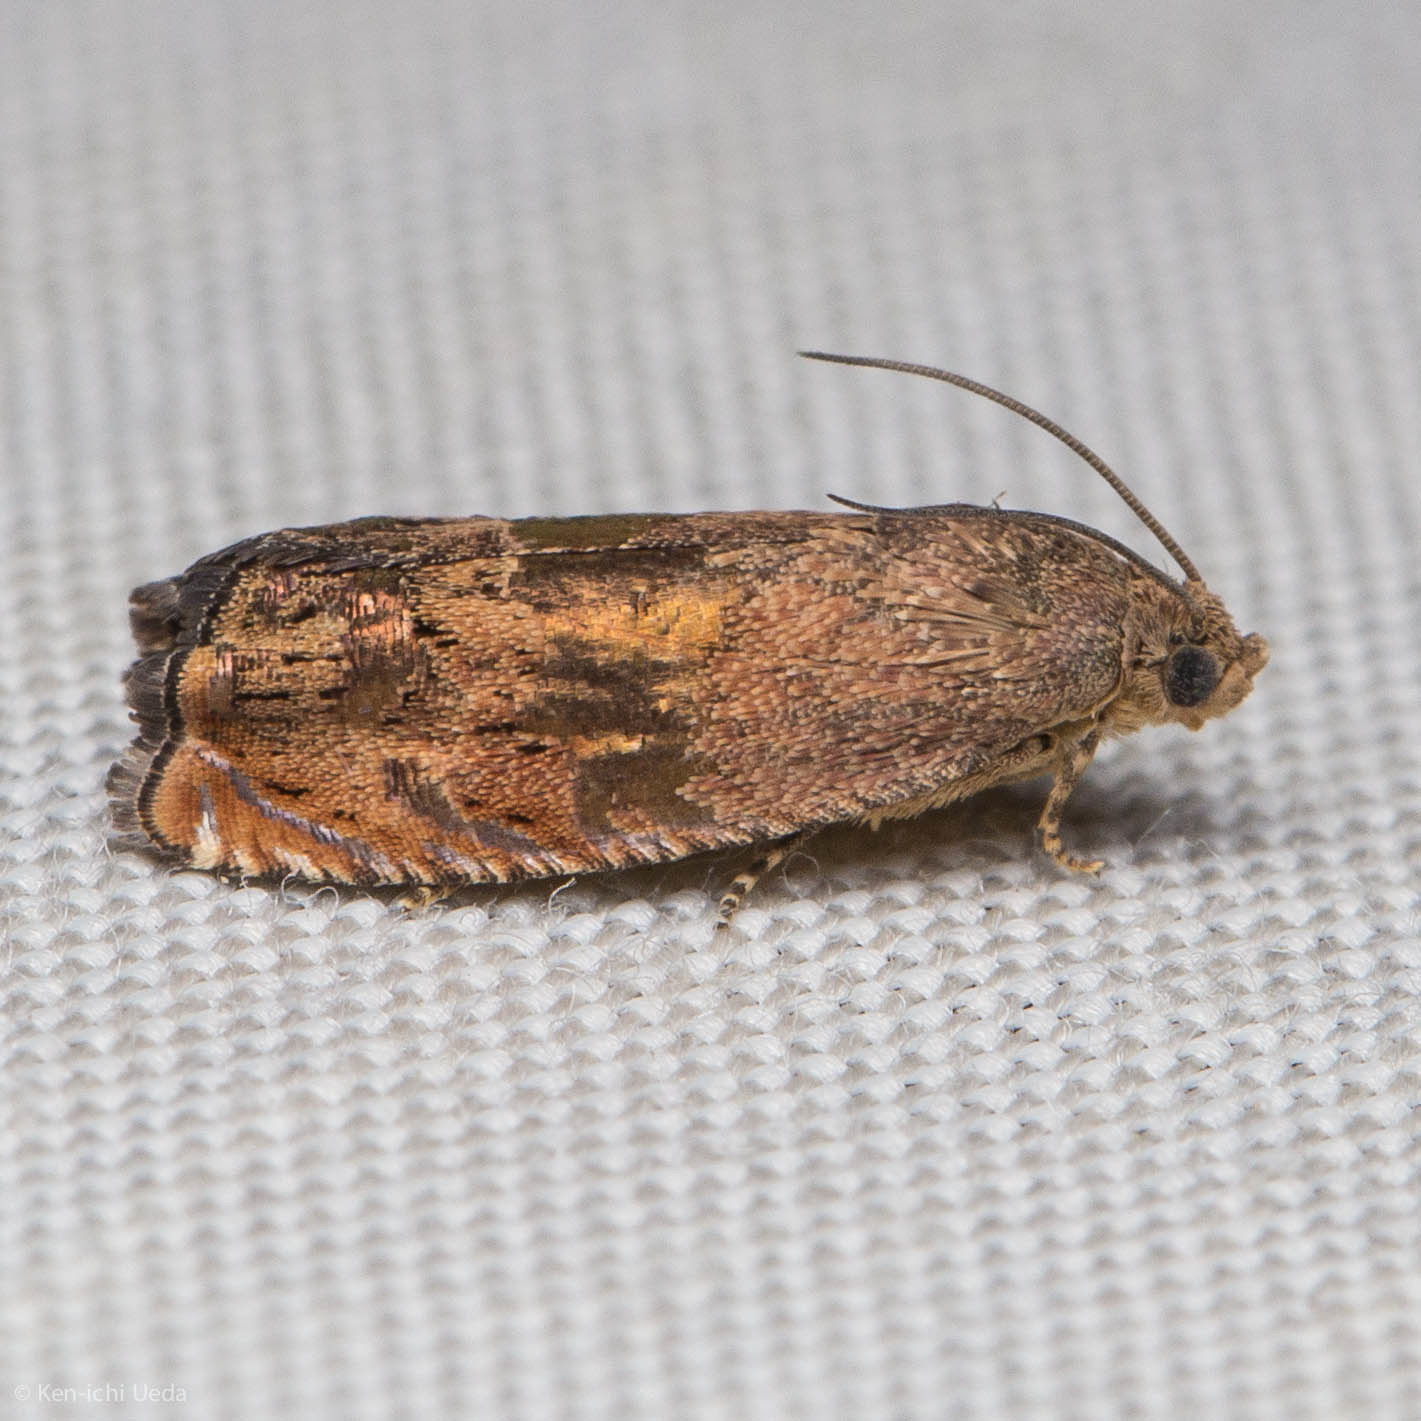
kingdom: Animalia
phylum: Arthropoda
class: Insecta
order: Lepidoptera
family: Tortricidae
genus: Cydia
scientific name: Cydia latiferreana
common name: Filbertworm moth
